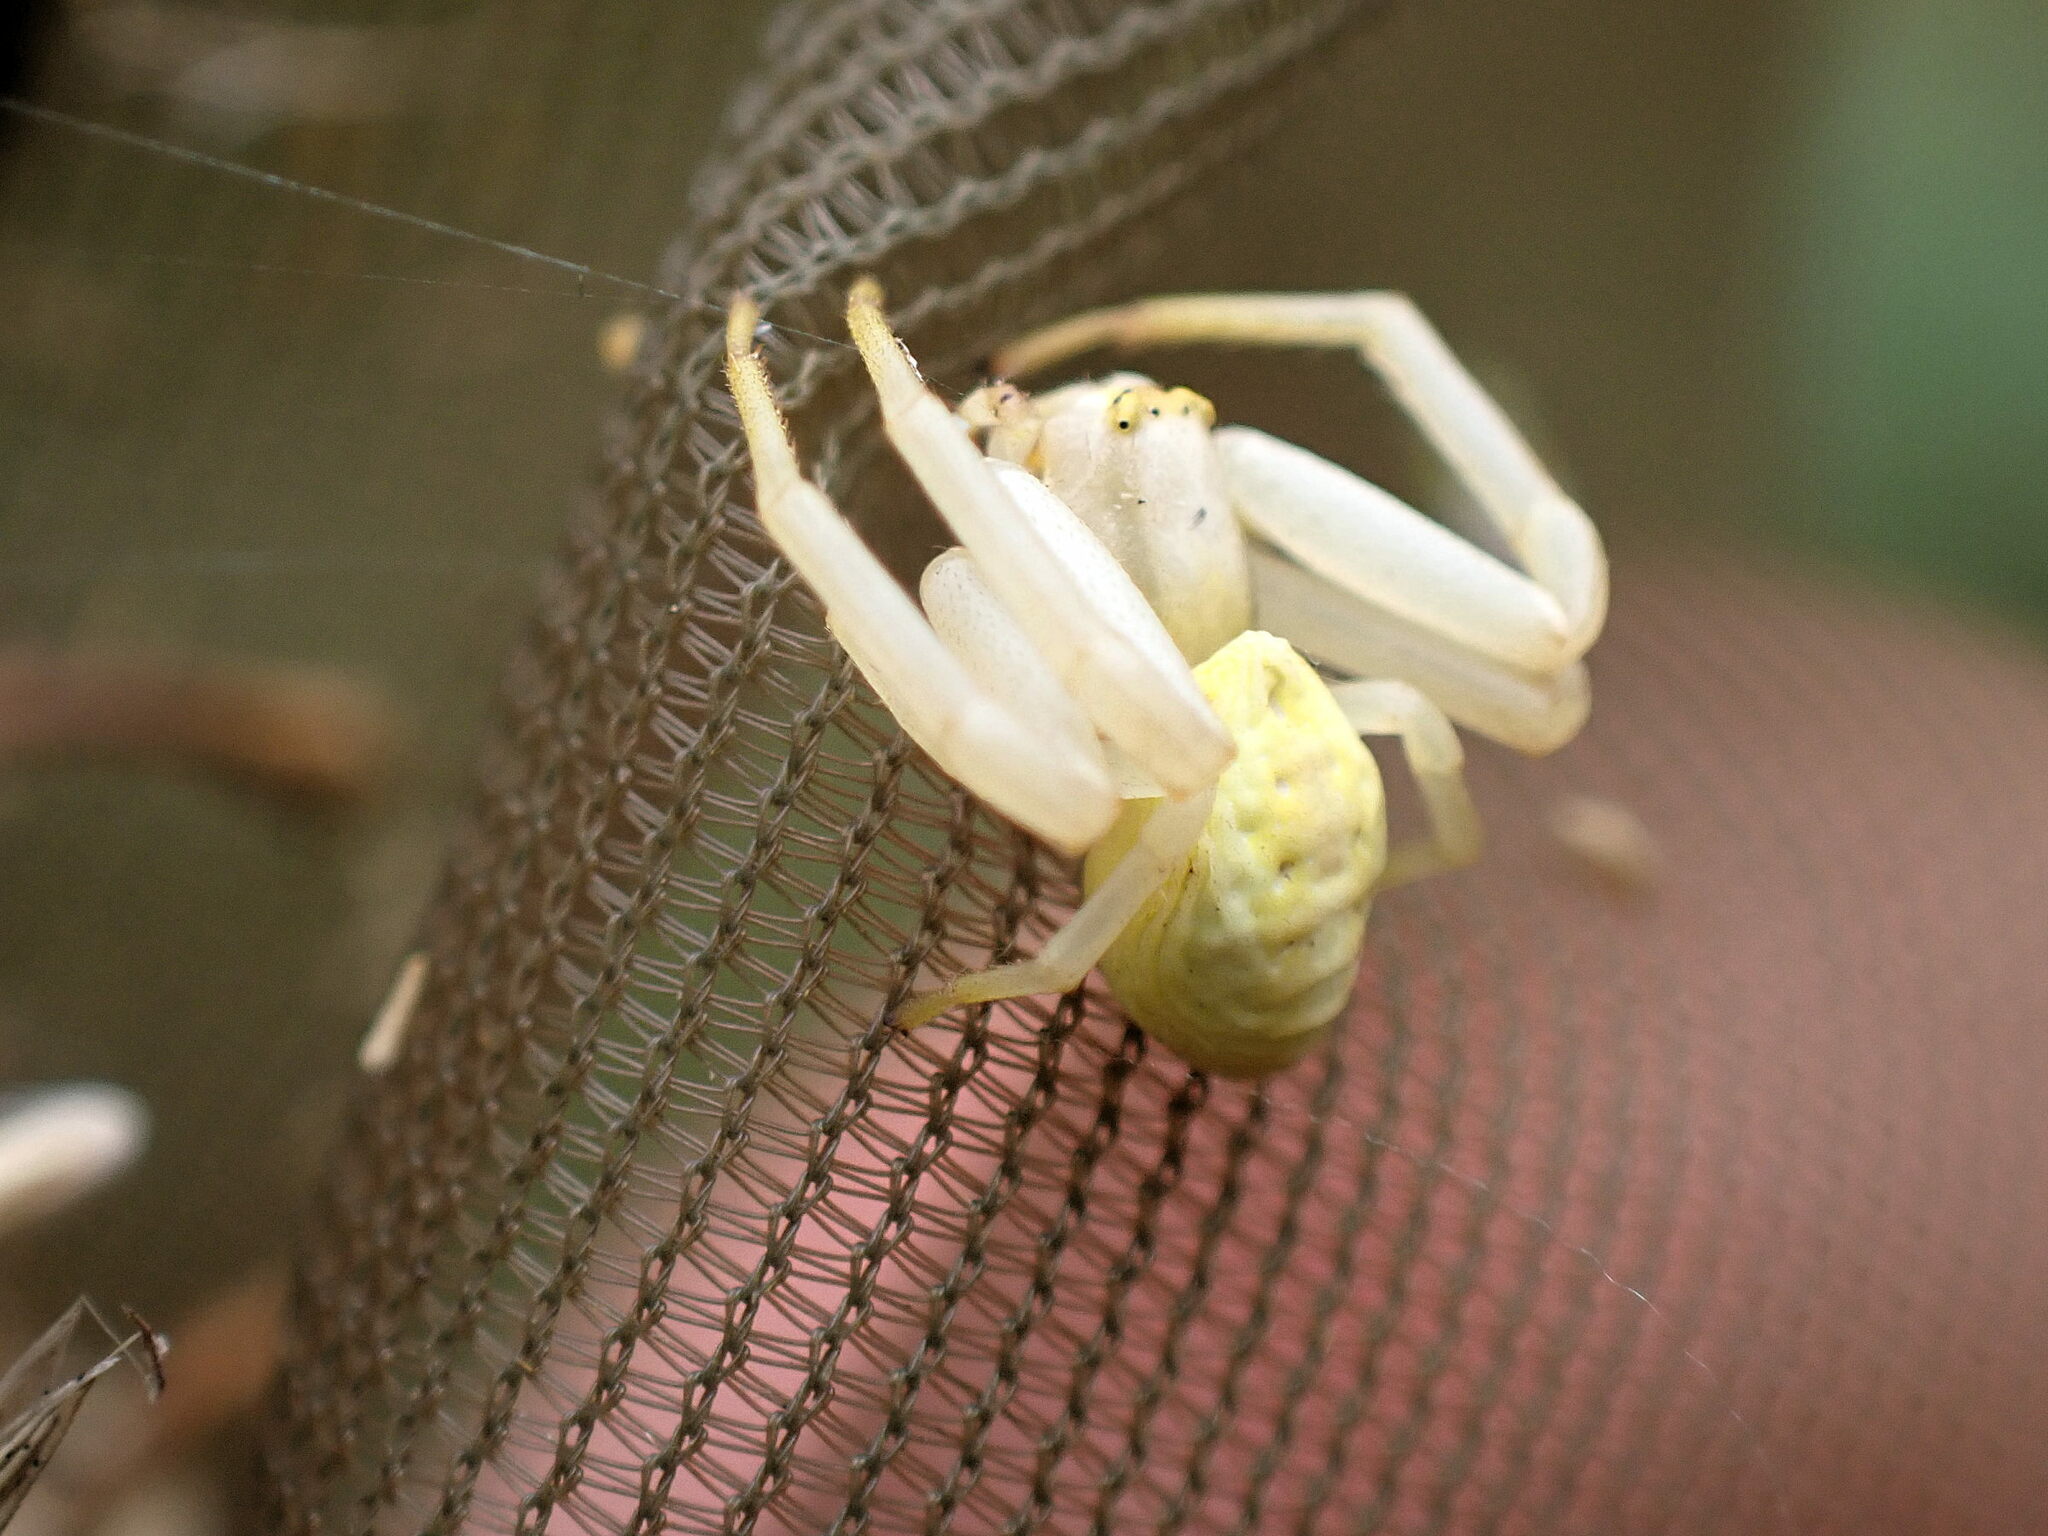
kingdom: Animalia
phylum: Arthropoda
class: Arachnida
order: Araneae
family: Thomisidae
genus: Misumena
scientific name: Misumena vatia
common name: Goldenrod crab spider
